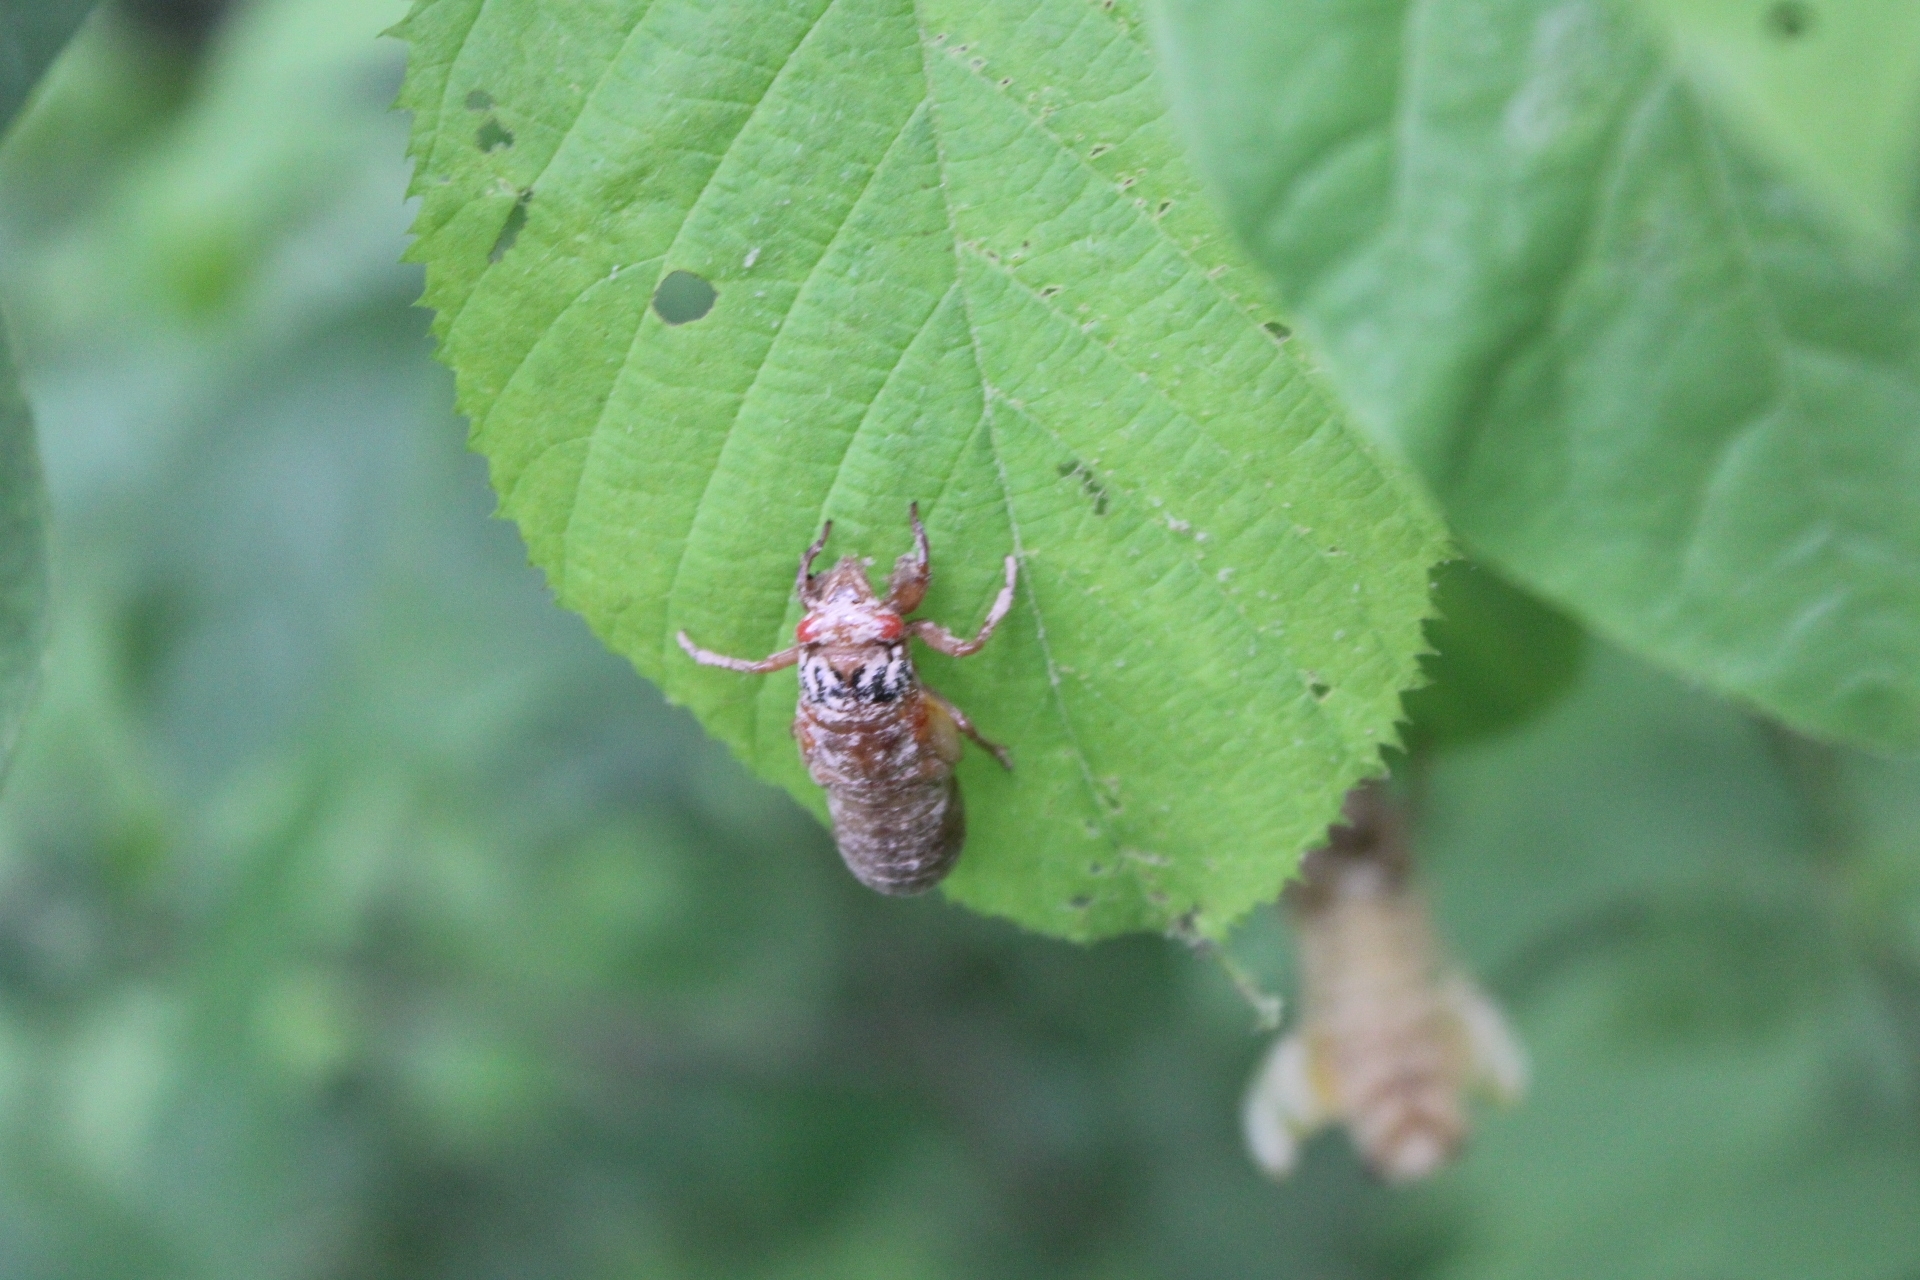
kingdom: Animalia
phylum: Arthropoda
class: Insecta
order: Hemiptera
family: Cicadidae
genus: Magicicada
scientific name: Magicicada
